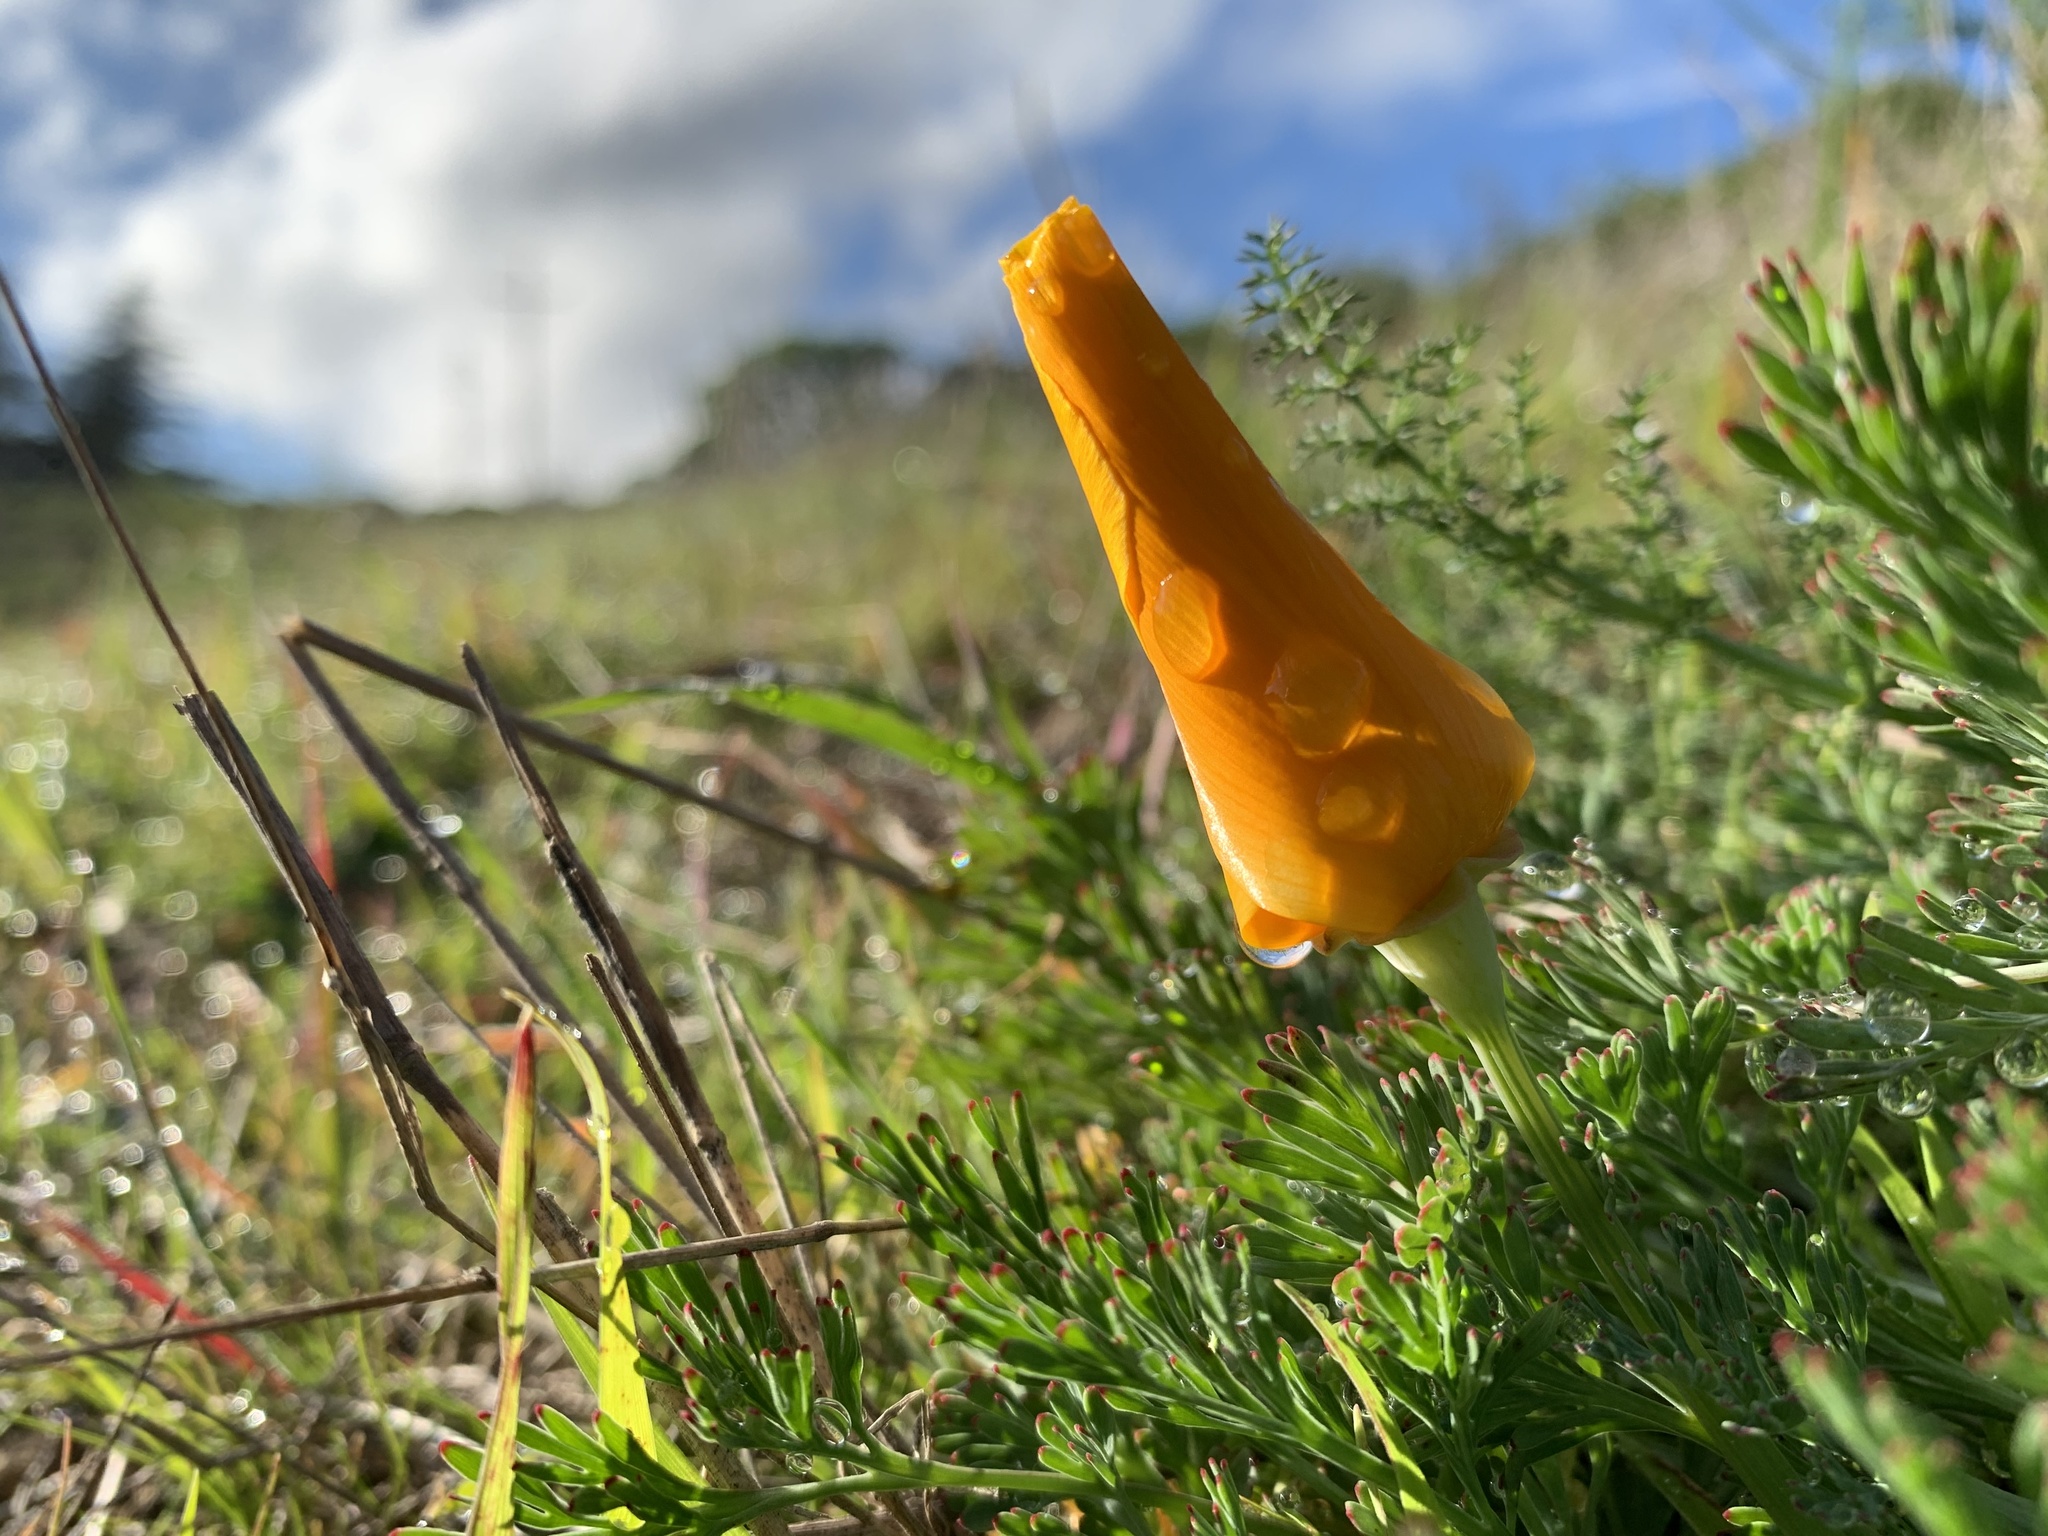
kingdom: Plantae
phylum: Tracheophyta
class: Magnoliopsida
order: Ranunculales
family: Papaveraceae
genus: Eschscholzia
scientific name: Eschscholzia californica
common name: California poppy
